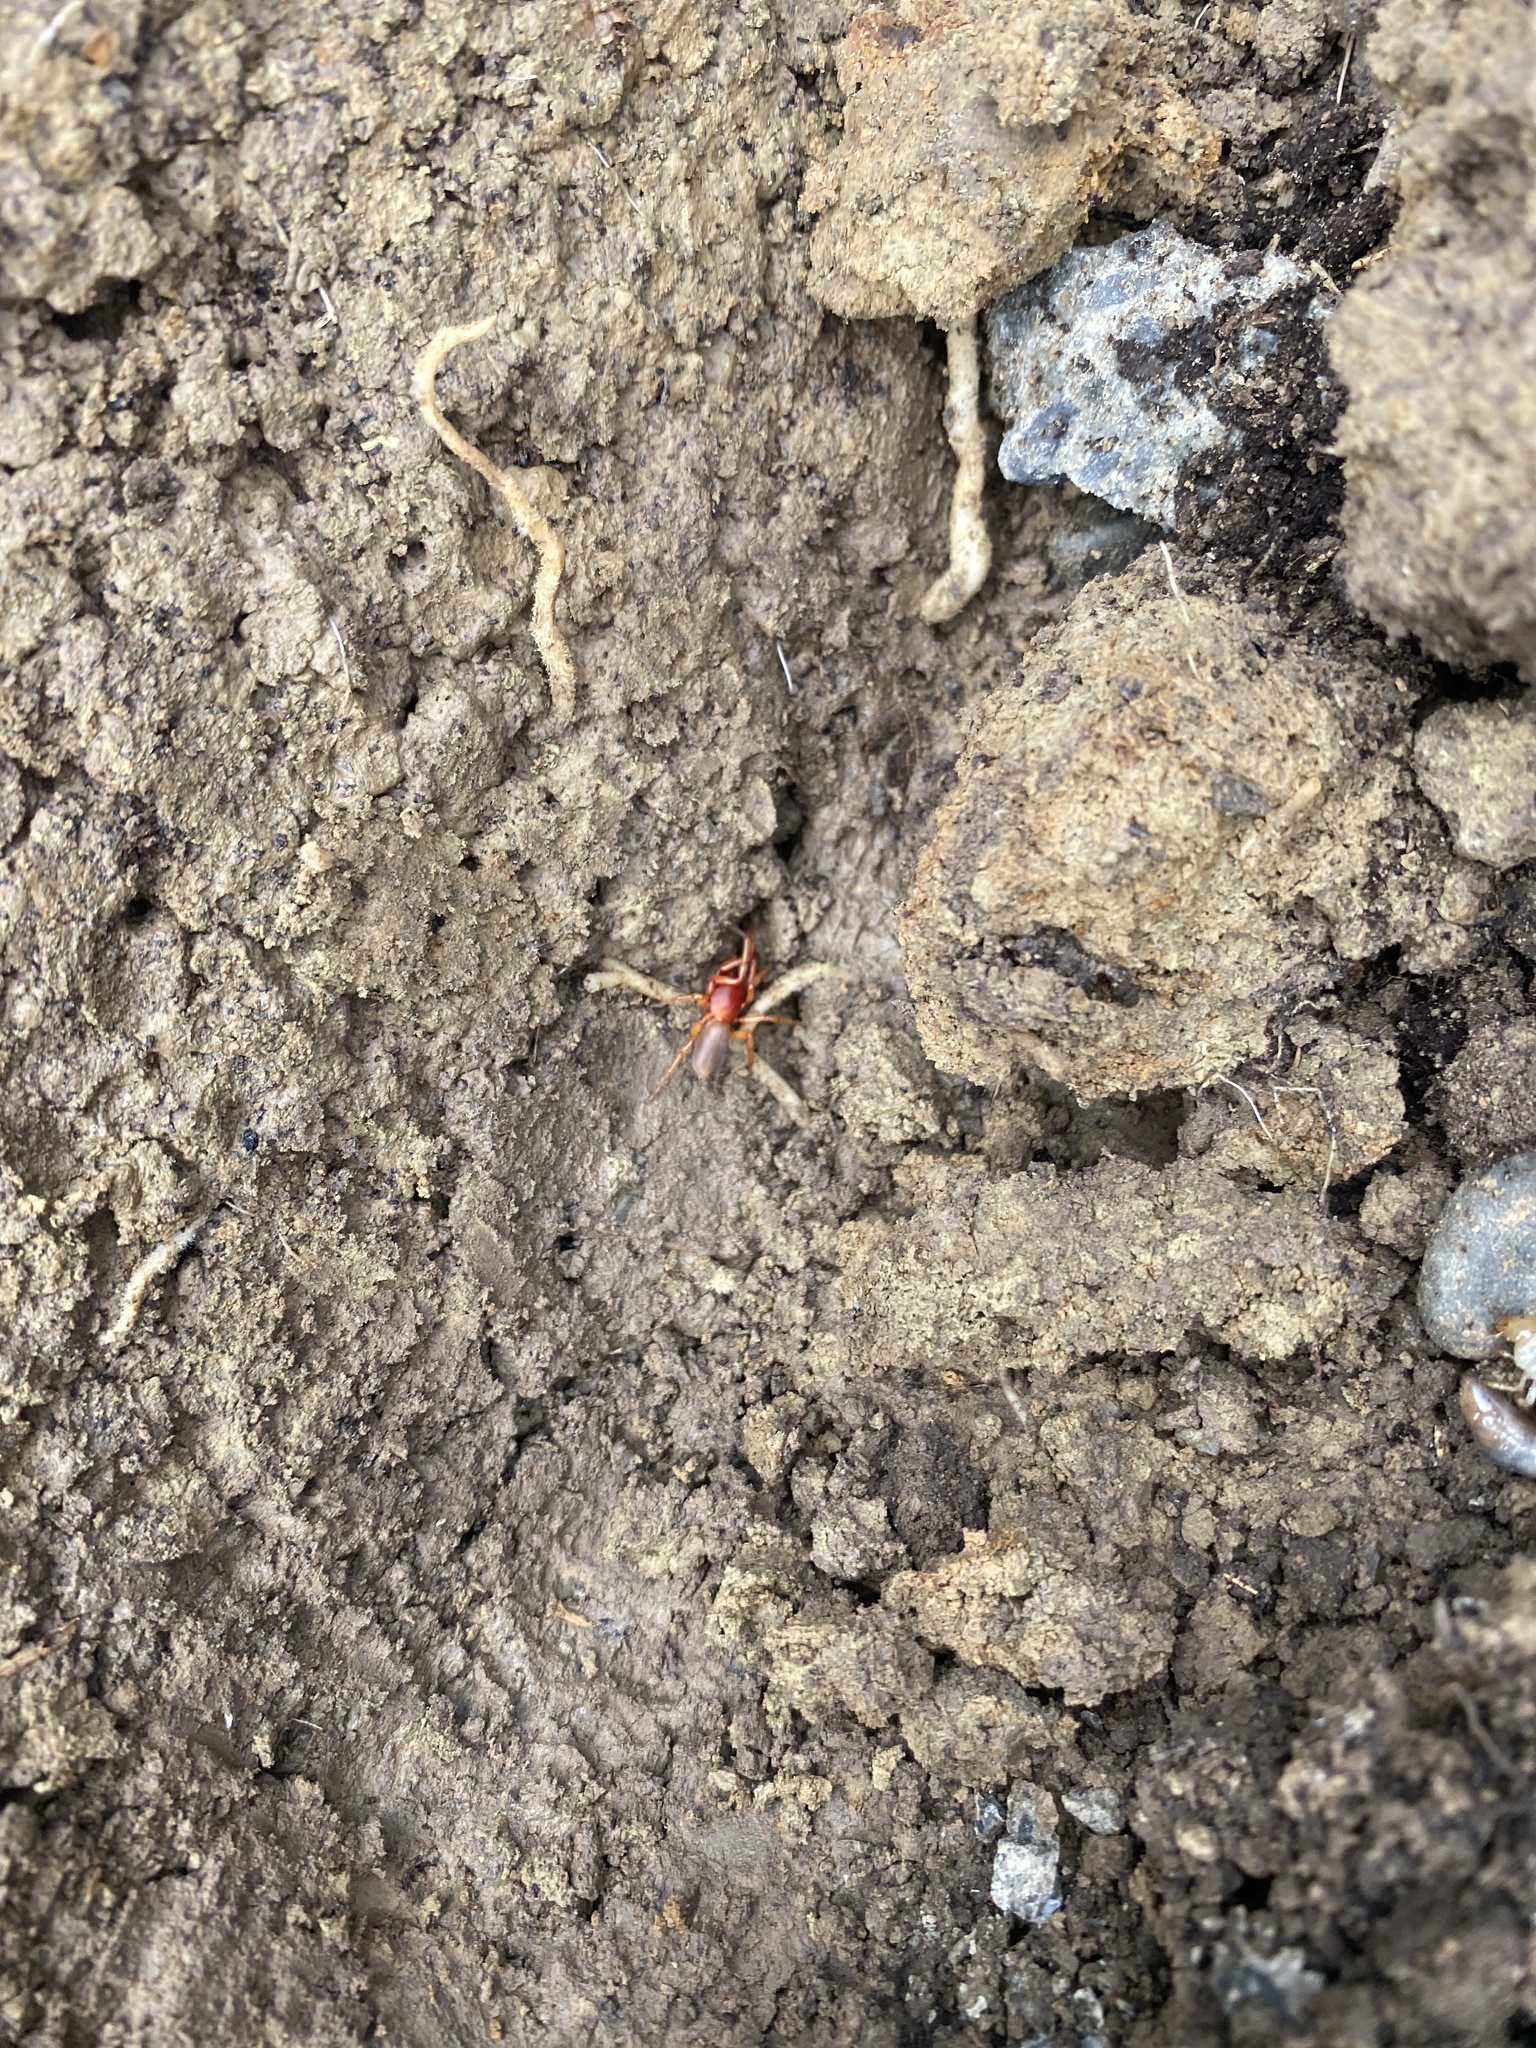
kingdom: Animalia
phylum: Arthropoda
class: Arachnida
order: Araneae
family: Dysderidae
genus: Dysdera
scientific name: Dysdera crocata
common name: Woodlouse spider
